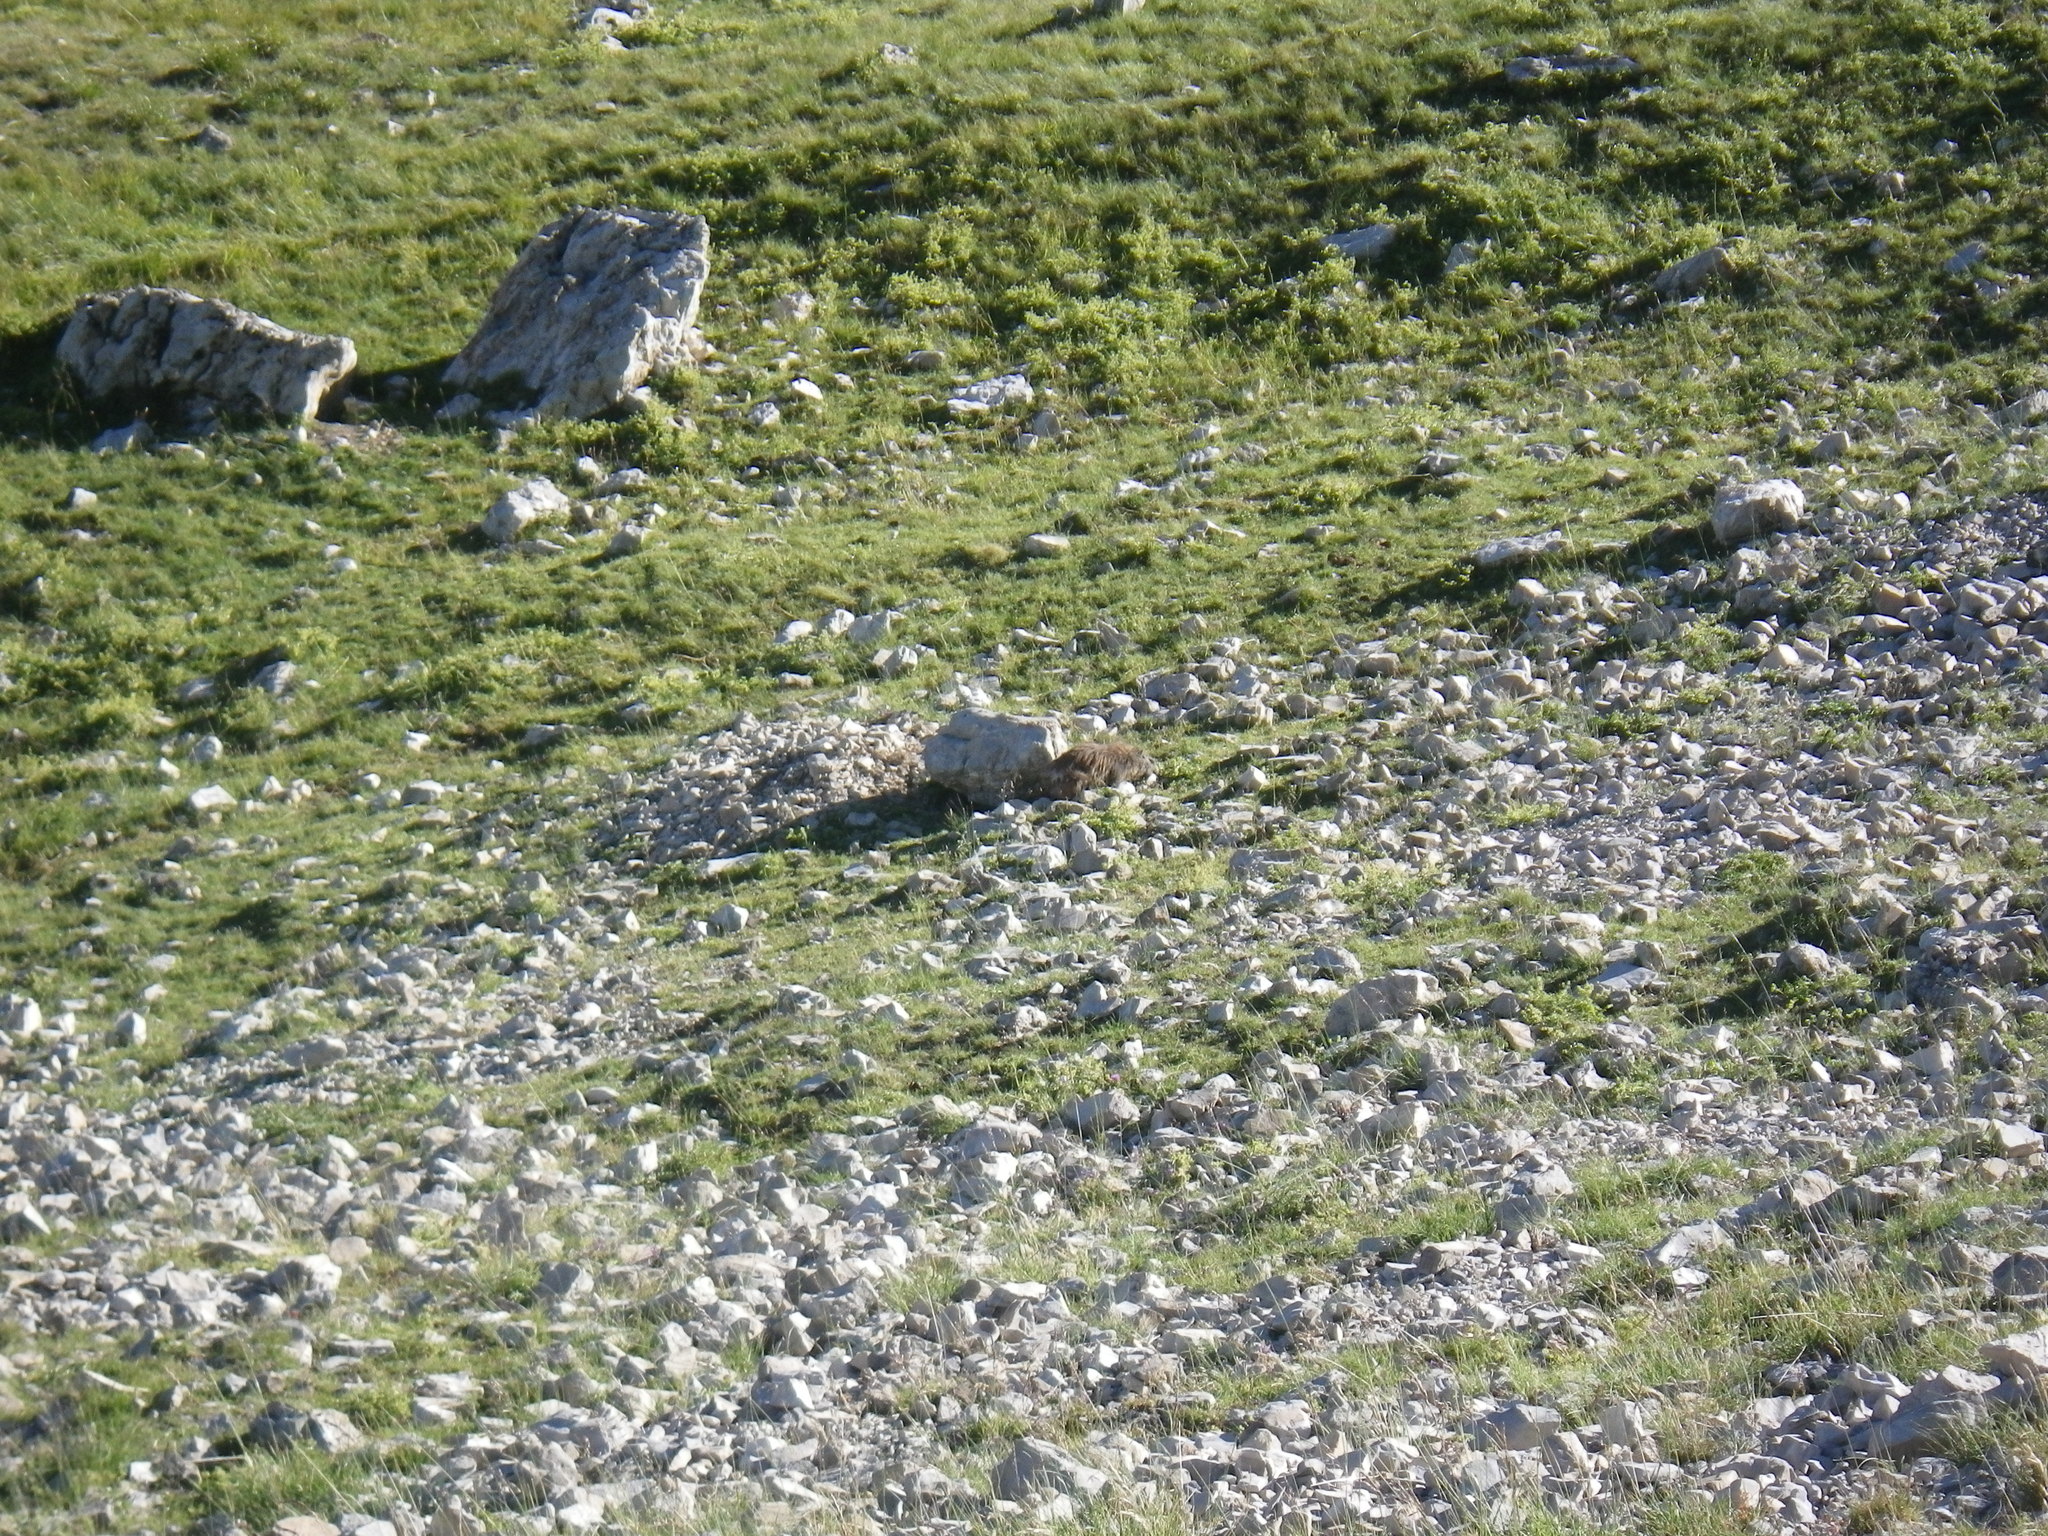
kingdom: Animalia
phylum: Chordata
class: Mammalia
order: Rodentia
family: Sciuridae
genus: Marmota
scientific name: Marmota marmota
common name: Alpine marmot
